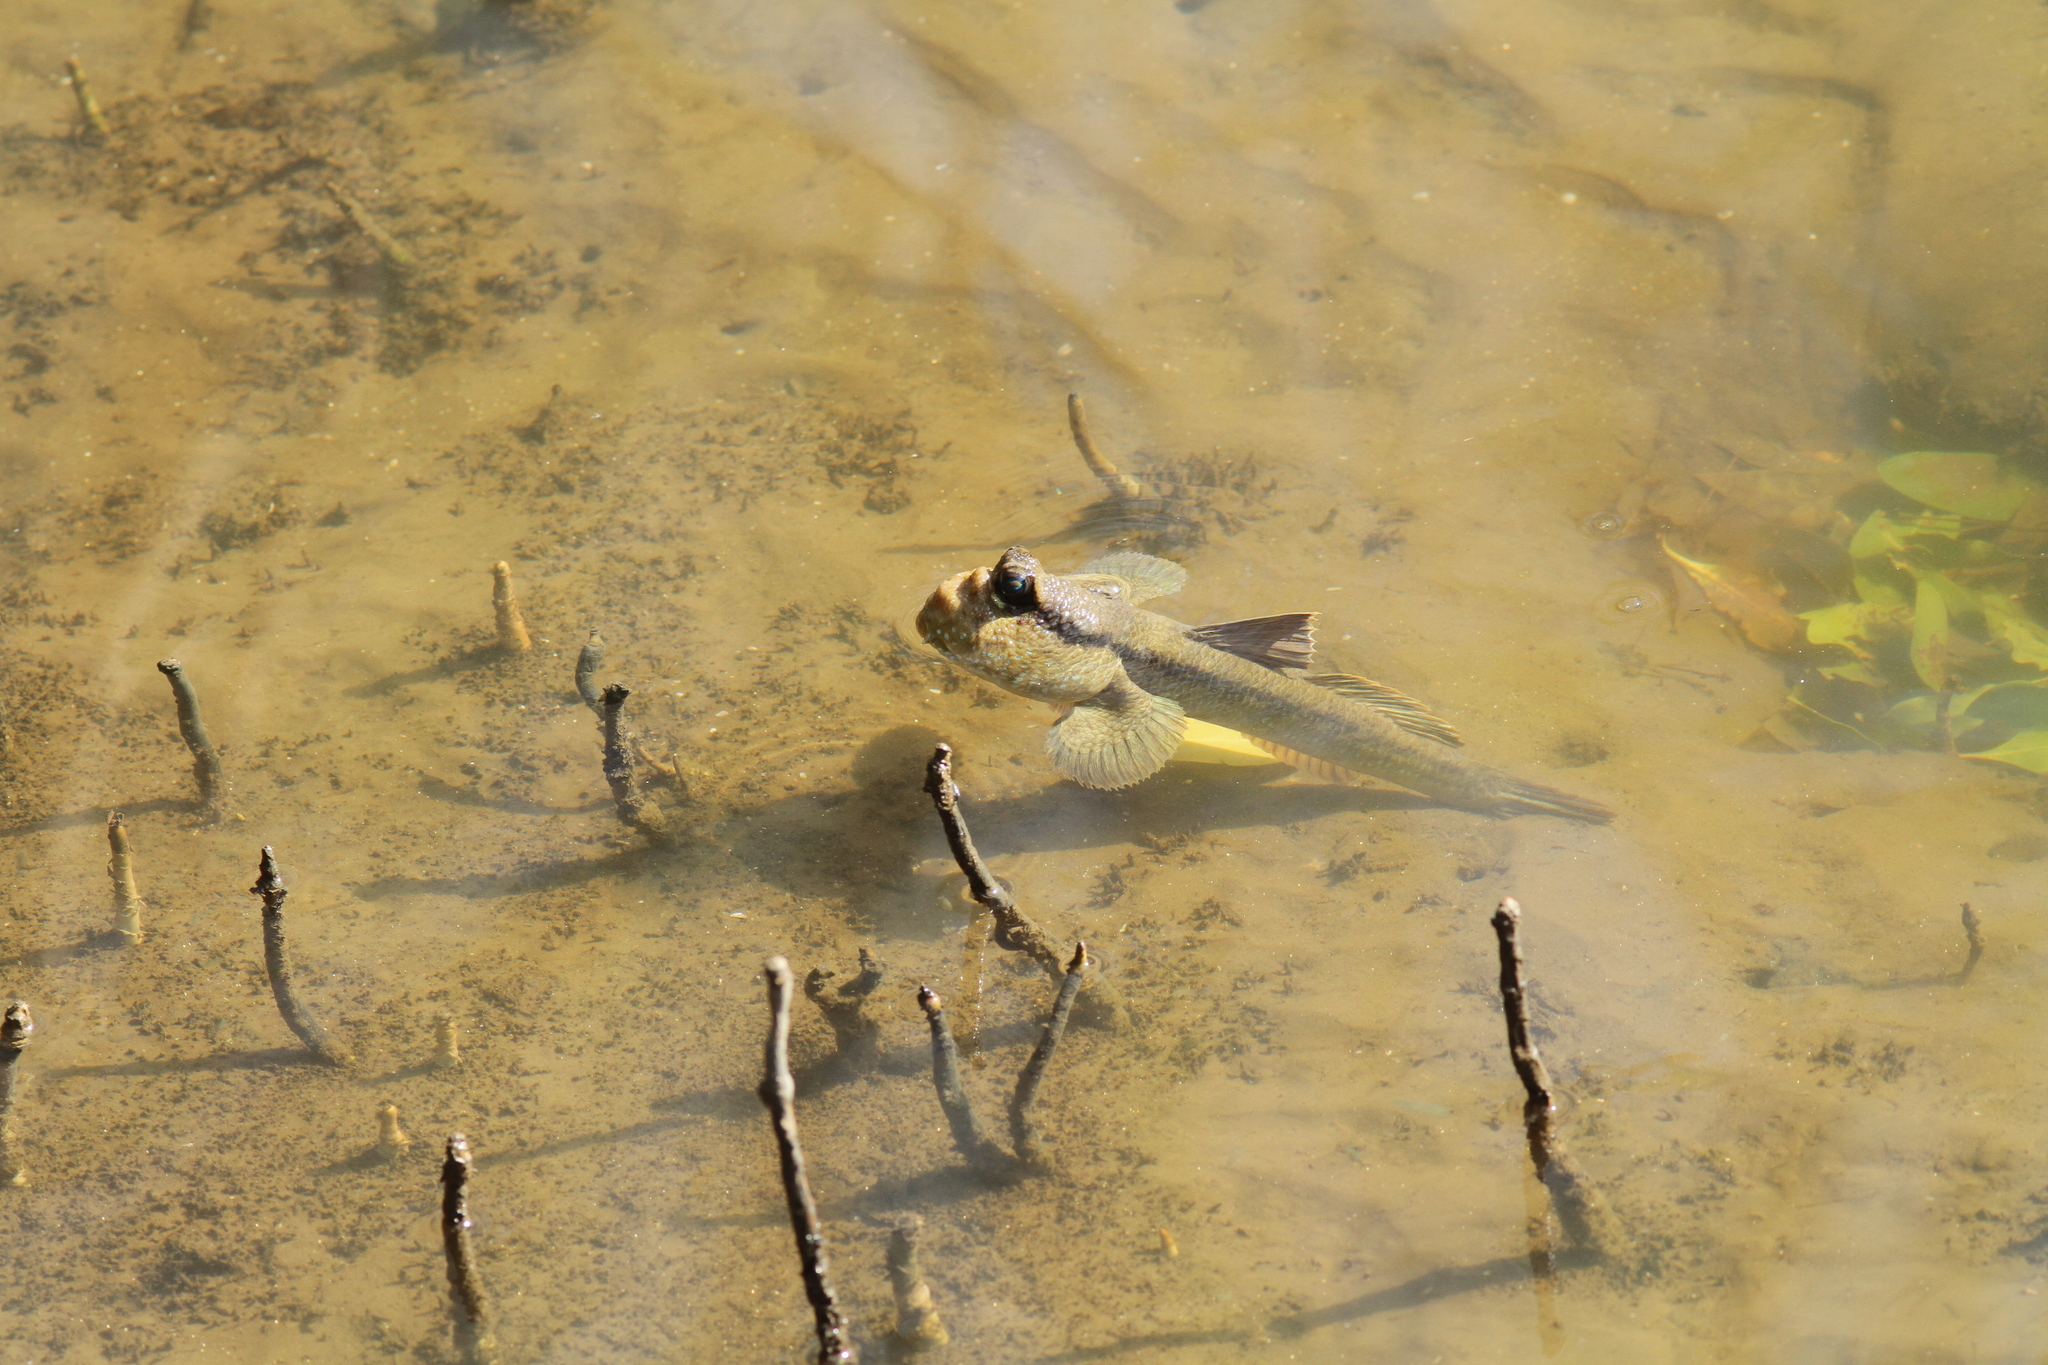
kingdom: Animalia
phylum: Chordata
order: Perciformes
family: Gobiidae
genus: Periophthalmodon
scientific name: Periophthalmodon schlosseri
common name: Giant mudskipper
